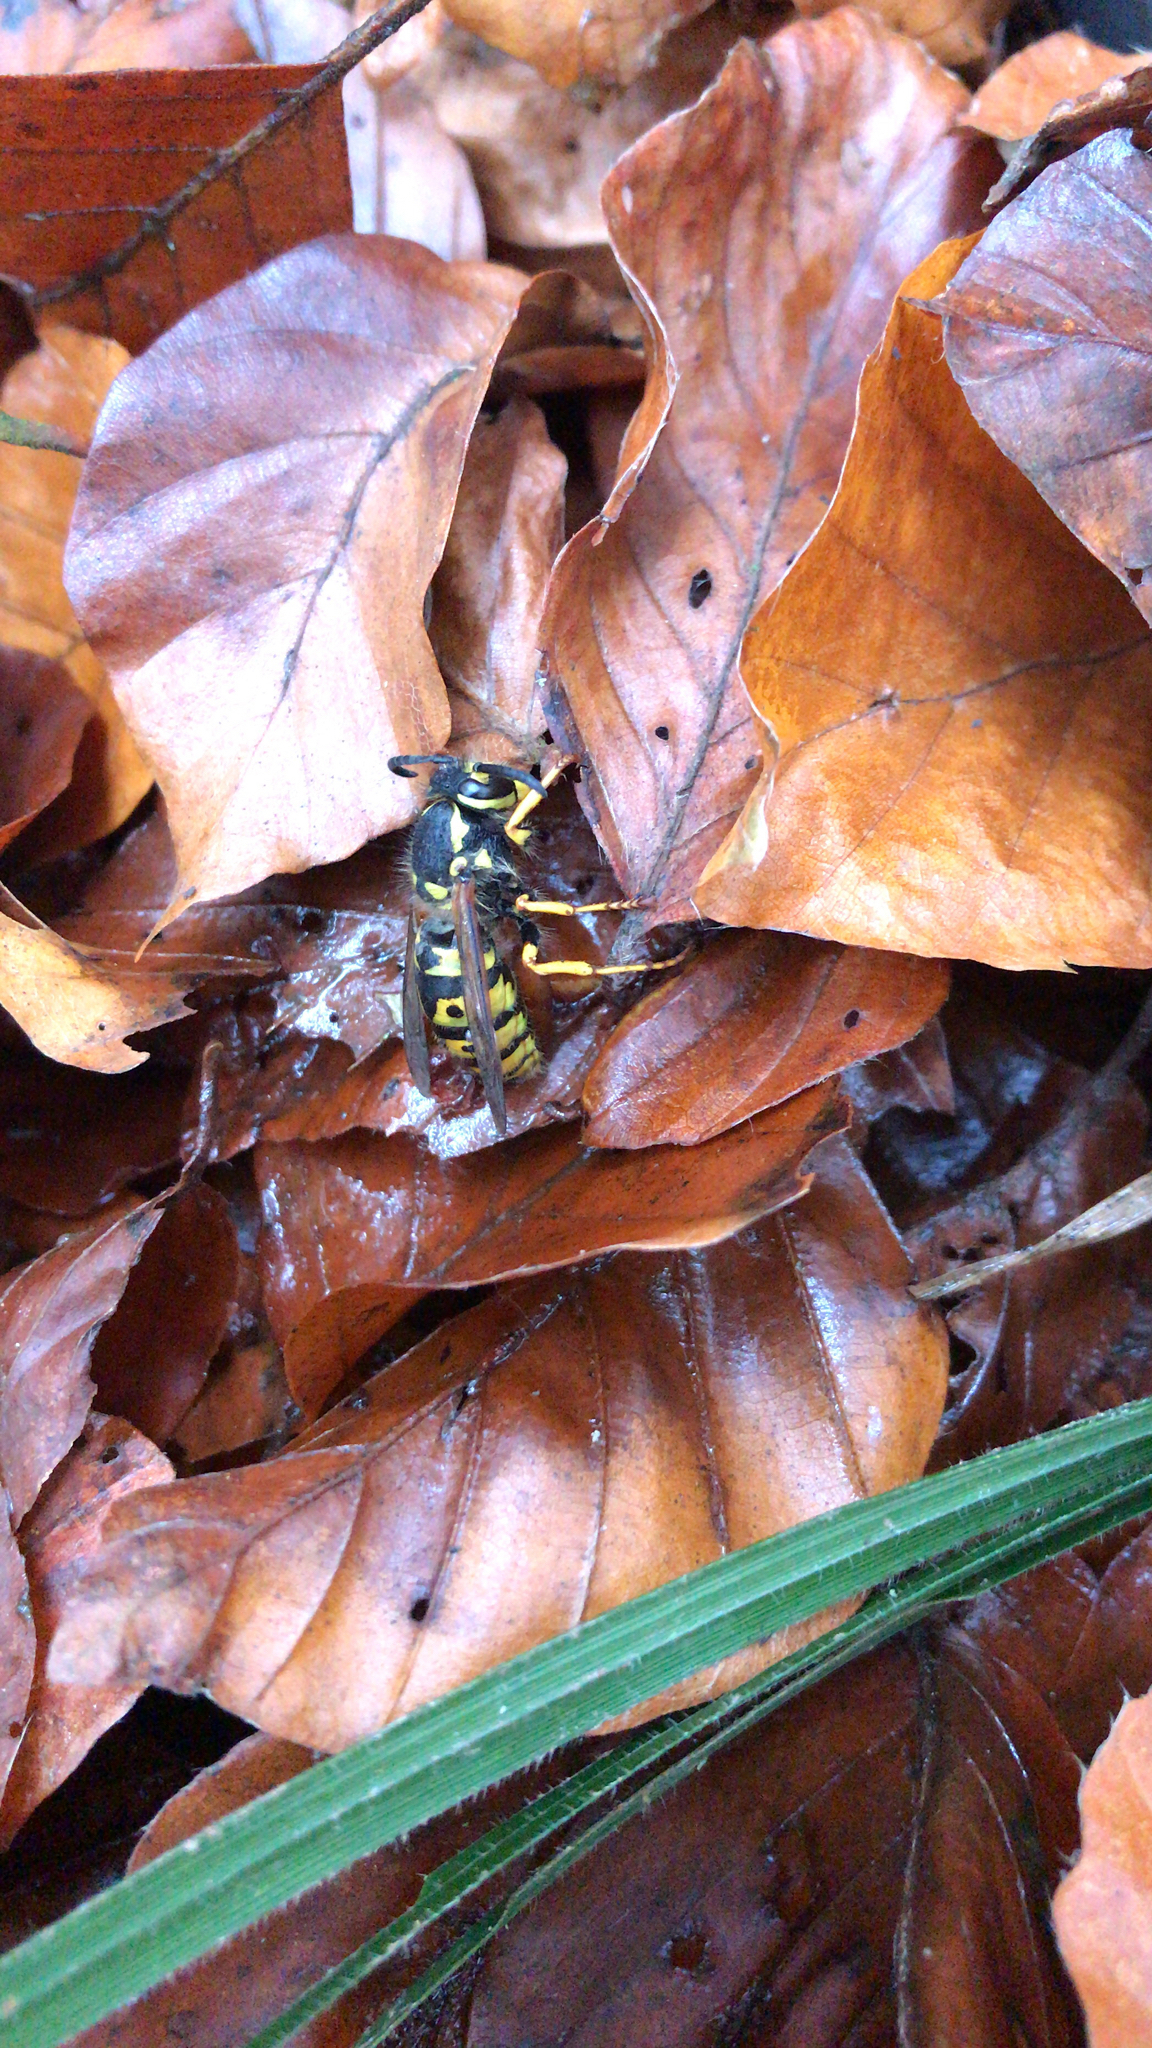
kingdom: Animalia
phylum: Arthropoda
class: Insecta
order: Hymenoptera
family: Vespidae
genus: Vespula
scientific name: Vespula germanica
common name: German wasp
